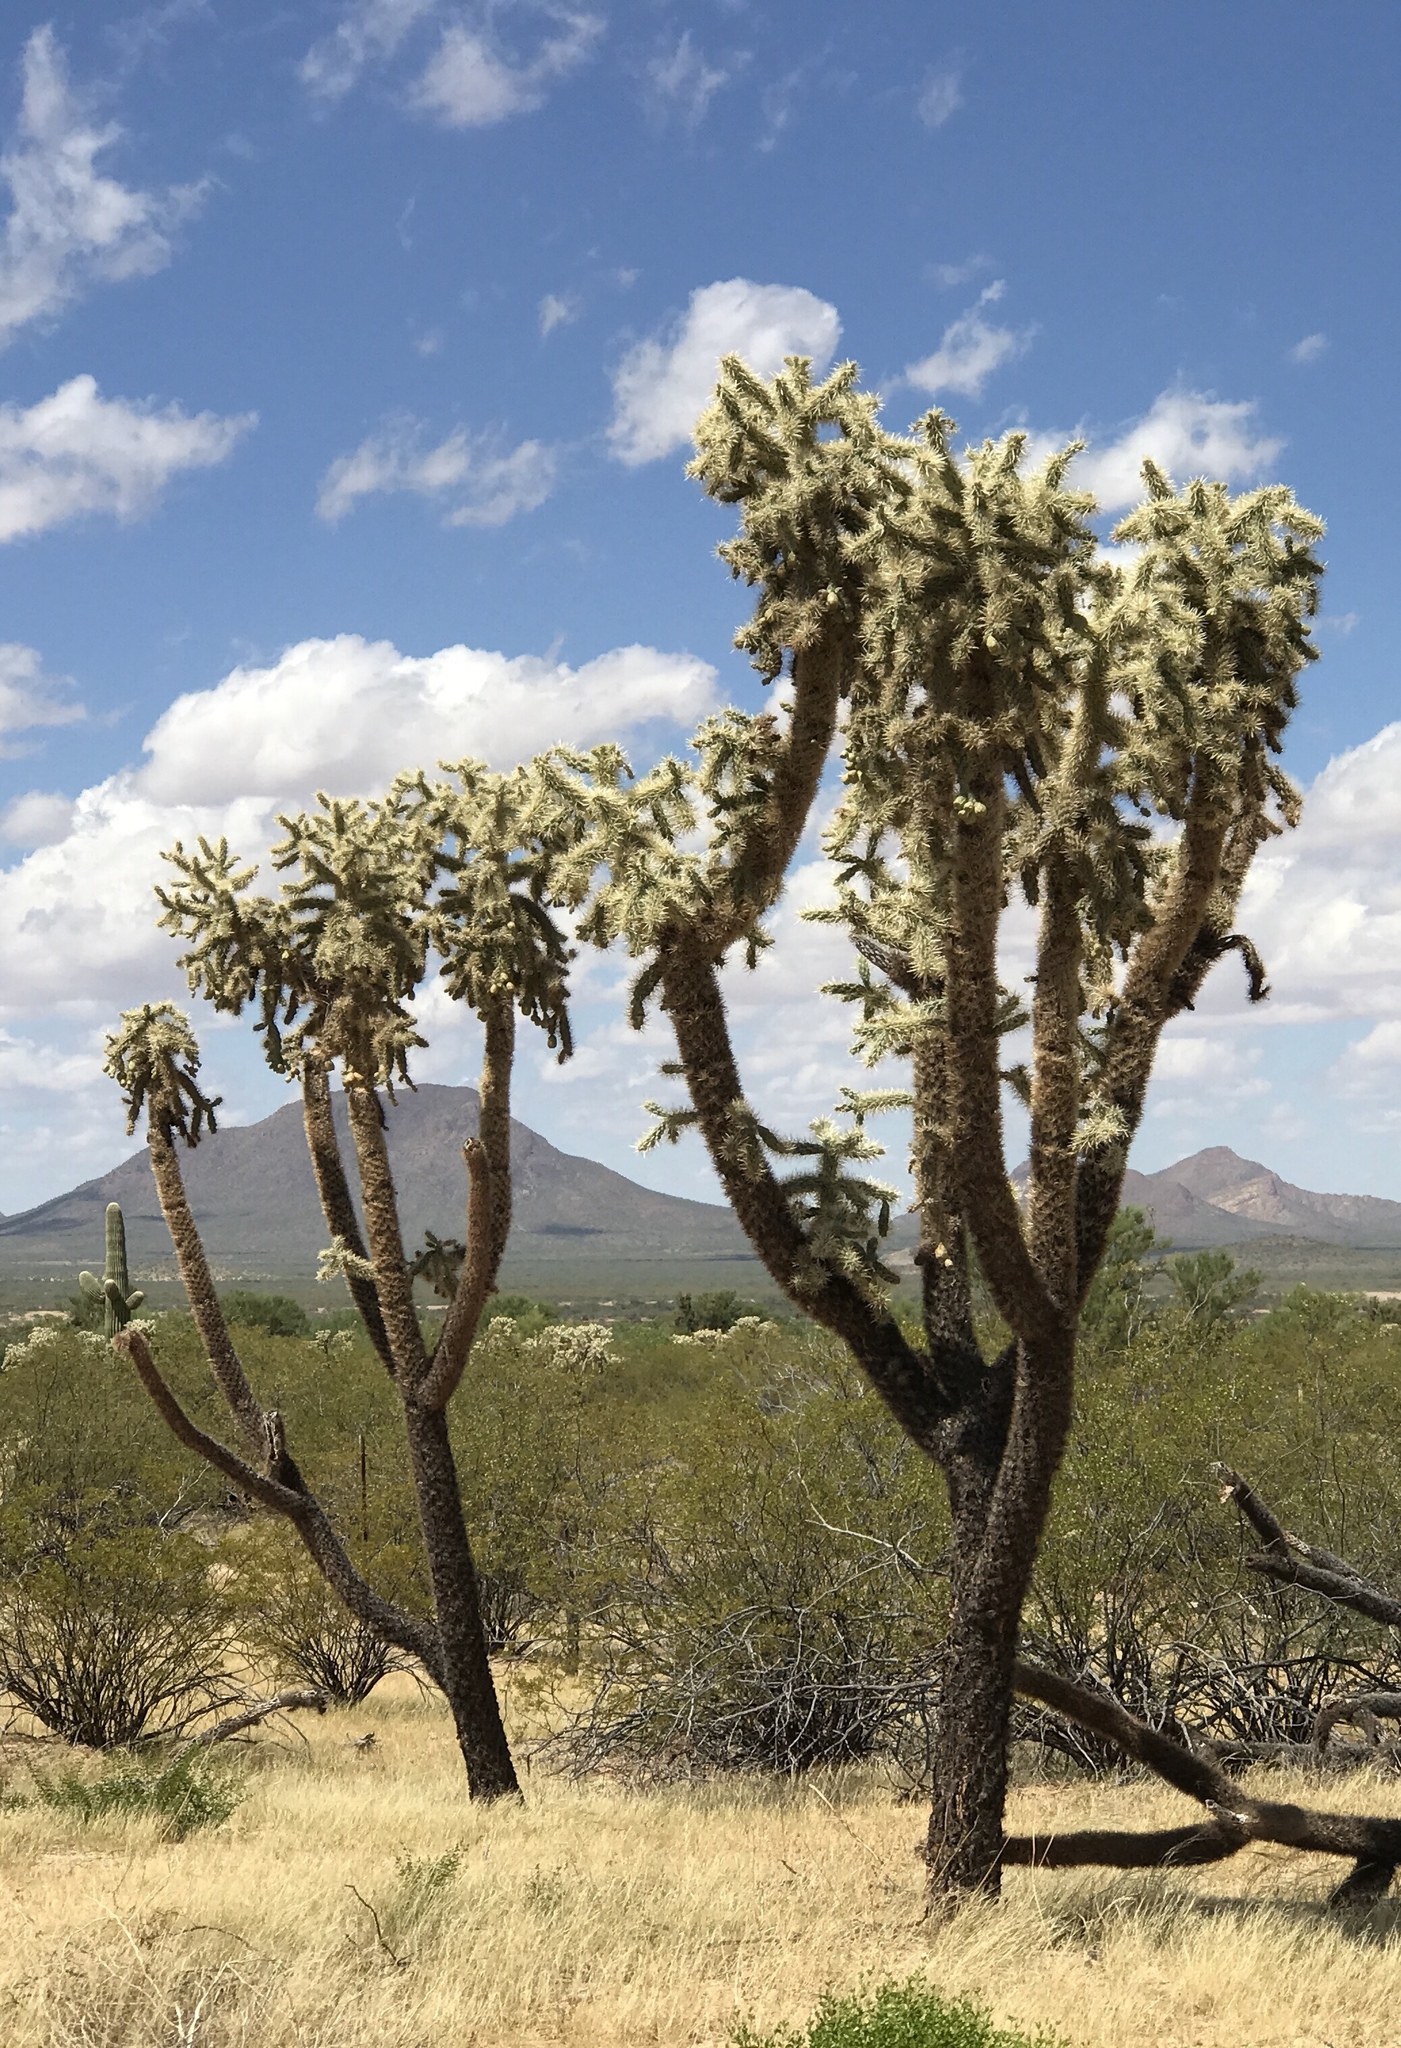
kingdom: Plantae
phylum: Tracheophyta
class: Magnoliopsida
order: Caryophyllales
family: Cactaceae
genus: Cylindropuntia
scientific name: Cylindropuntia fulgida
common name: Jumping cholla
